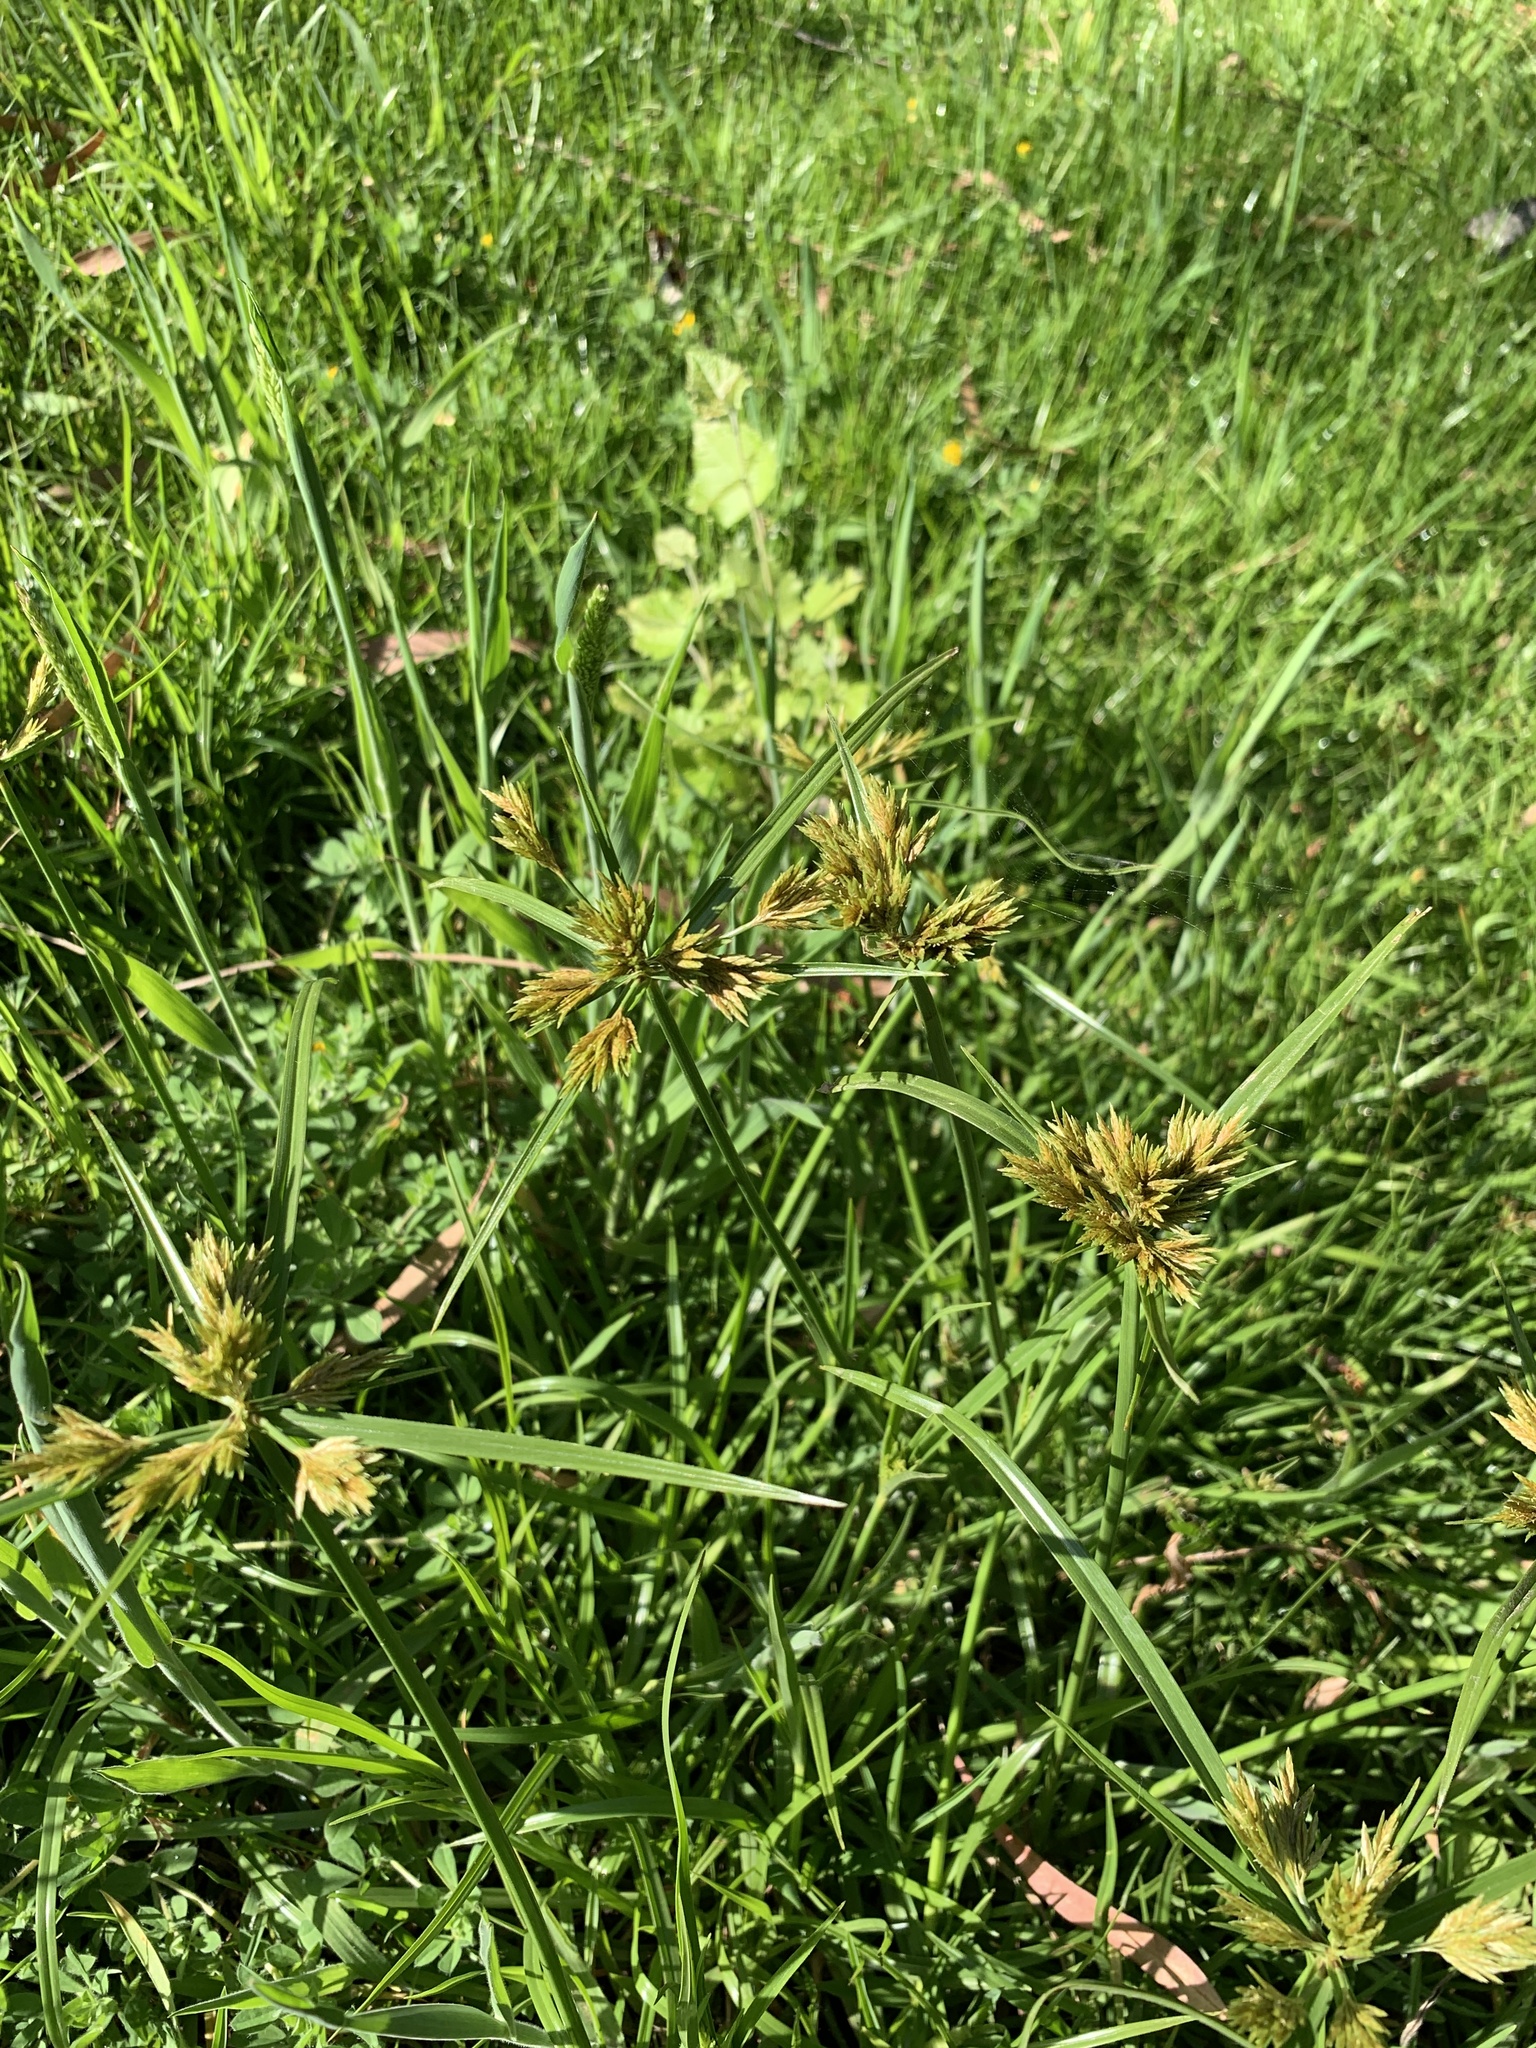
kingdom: Plantae
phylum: Tracheophyta
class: Liliopsida
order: Poales
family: Cyperaceae
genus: Cyperus
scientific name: Cyperus polystachyos
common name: Bunchy flat sedge
